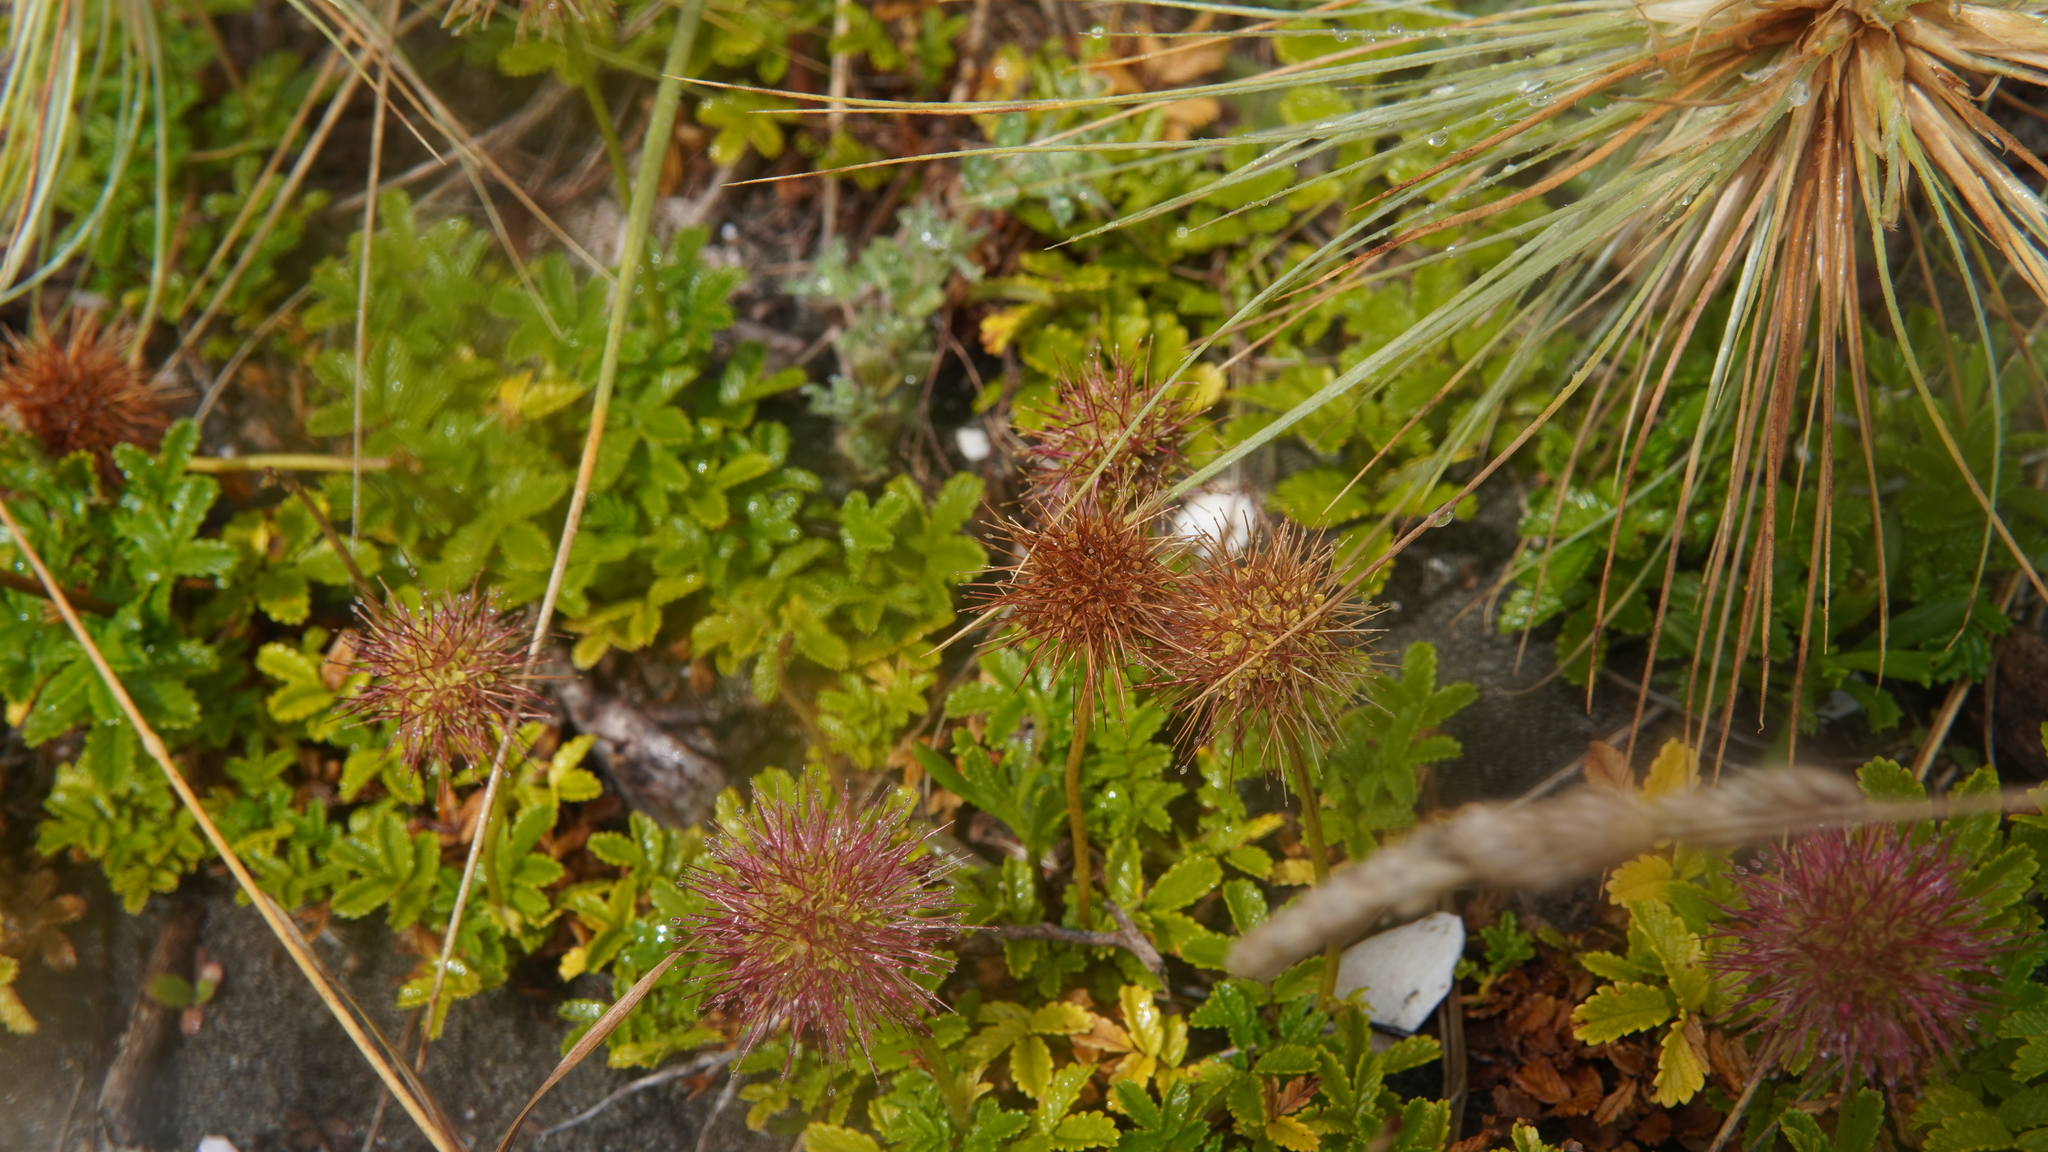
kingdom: Plantae
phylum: Tracheophyta
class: Magnoliopsida
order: Rosales
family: Rosaceae
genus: Acaena
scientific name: Acaena novae-zelandiae
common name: Pirri-pirri-bur
